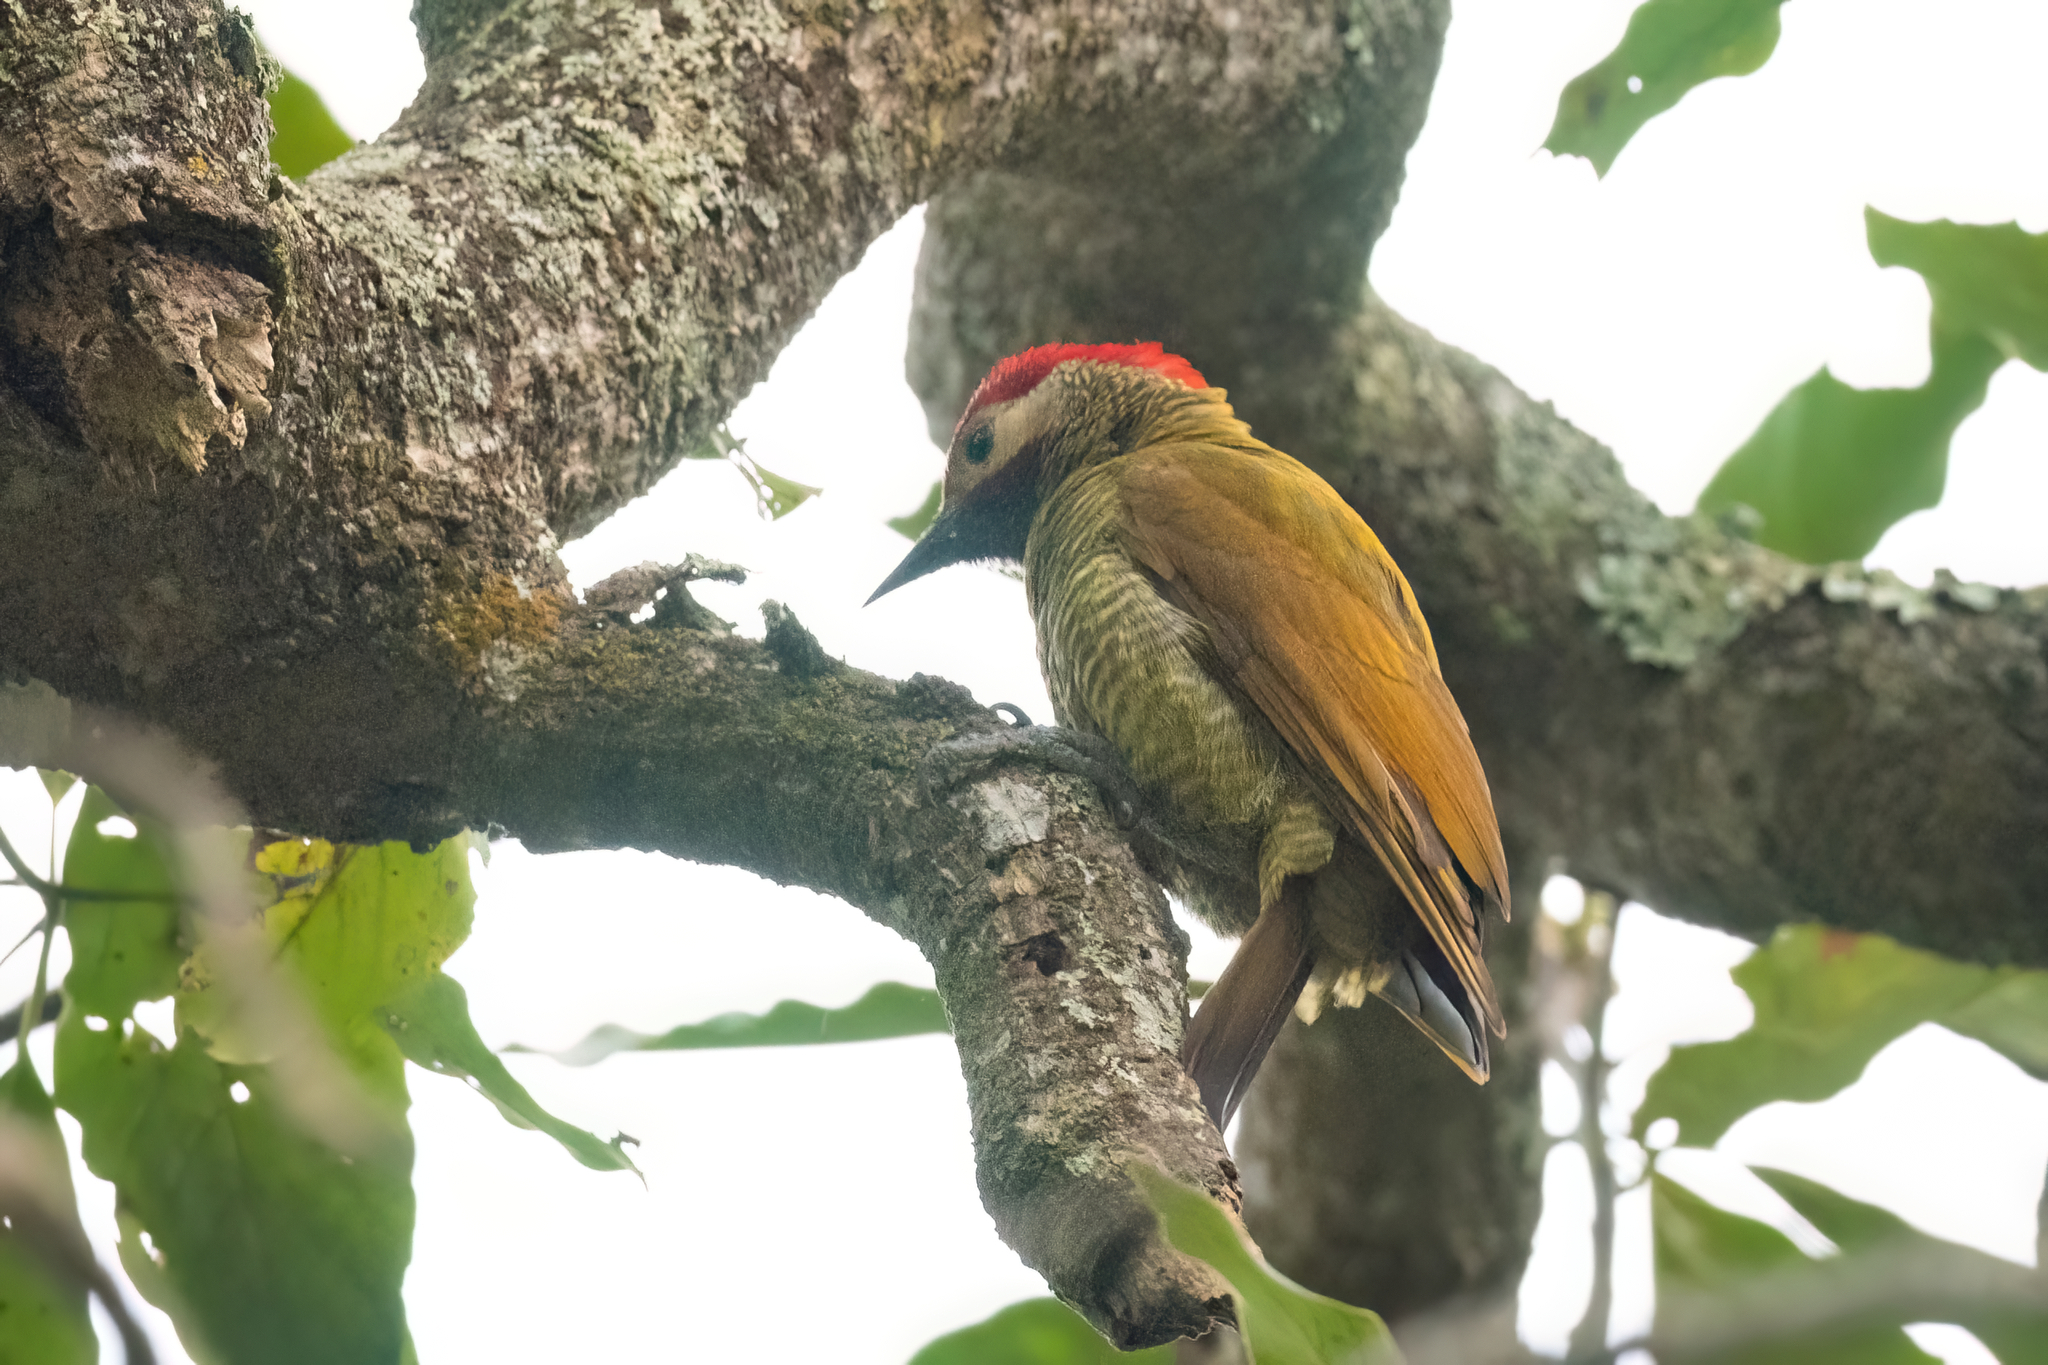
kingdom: Animalia
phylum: Chordata
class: Aves
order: Piciformes
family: Picidae
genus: Colaptes
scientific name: Colaptes rubiginosus
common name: Golden-olive woodpecker
